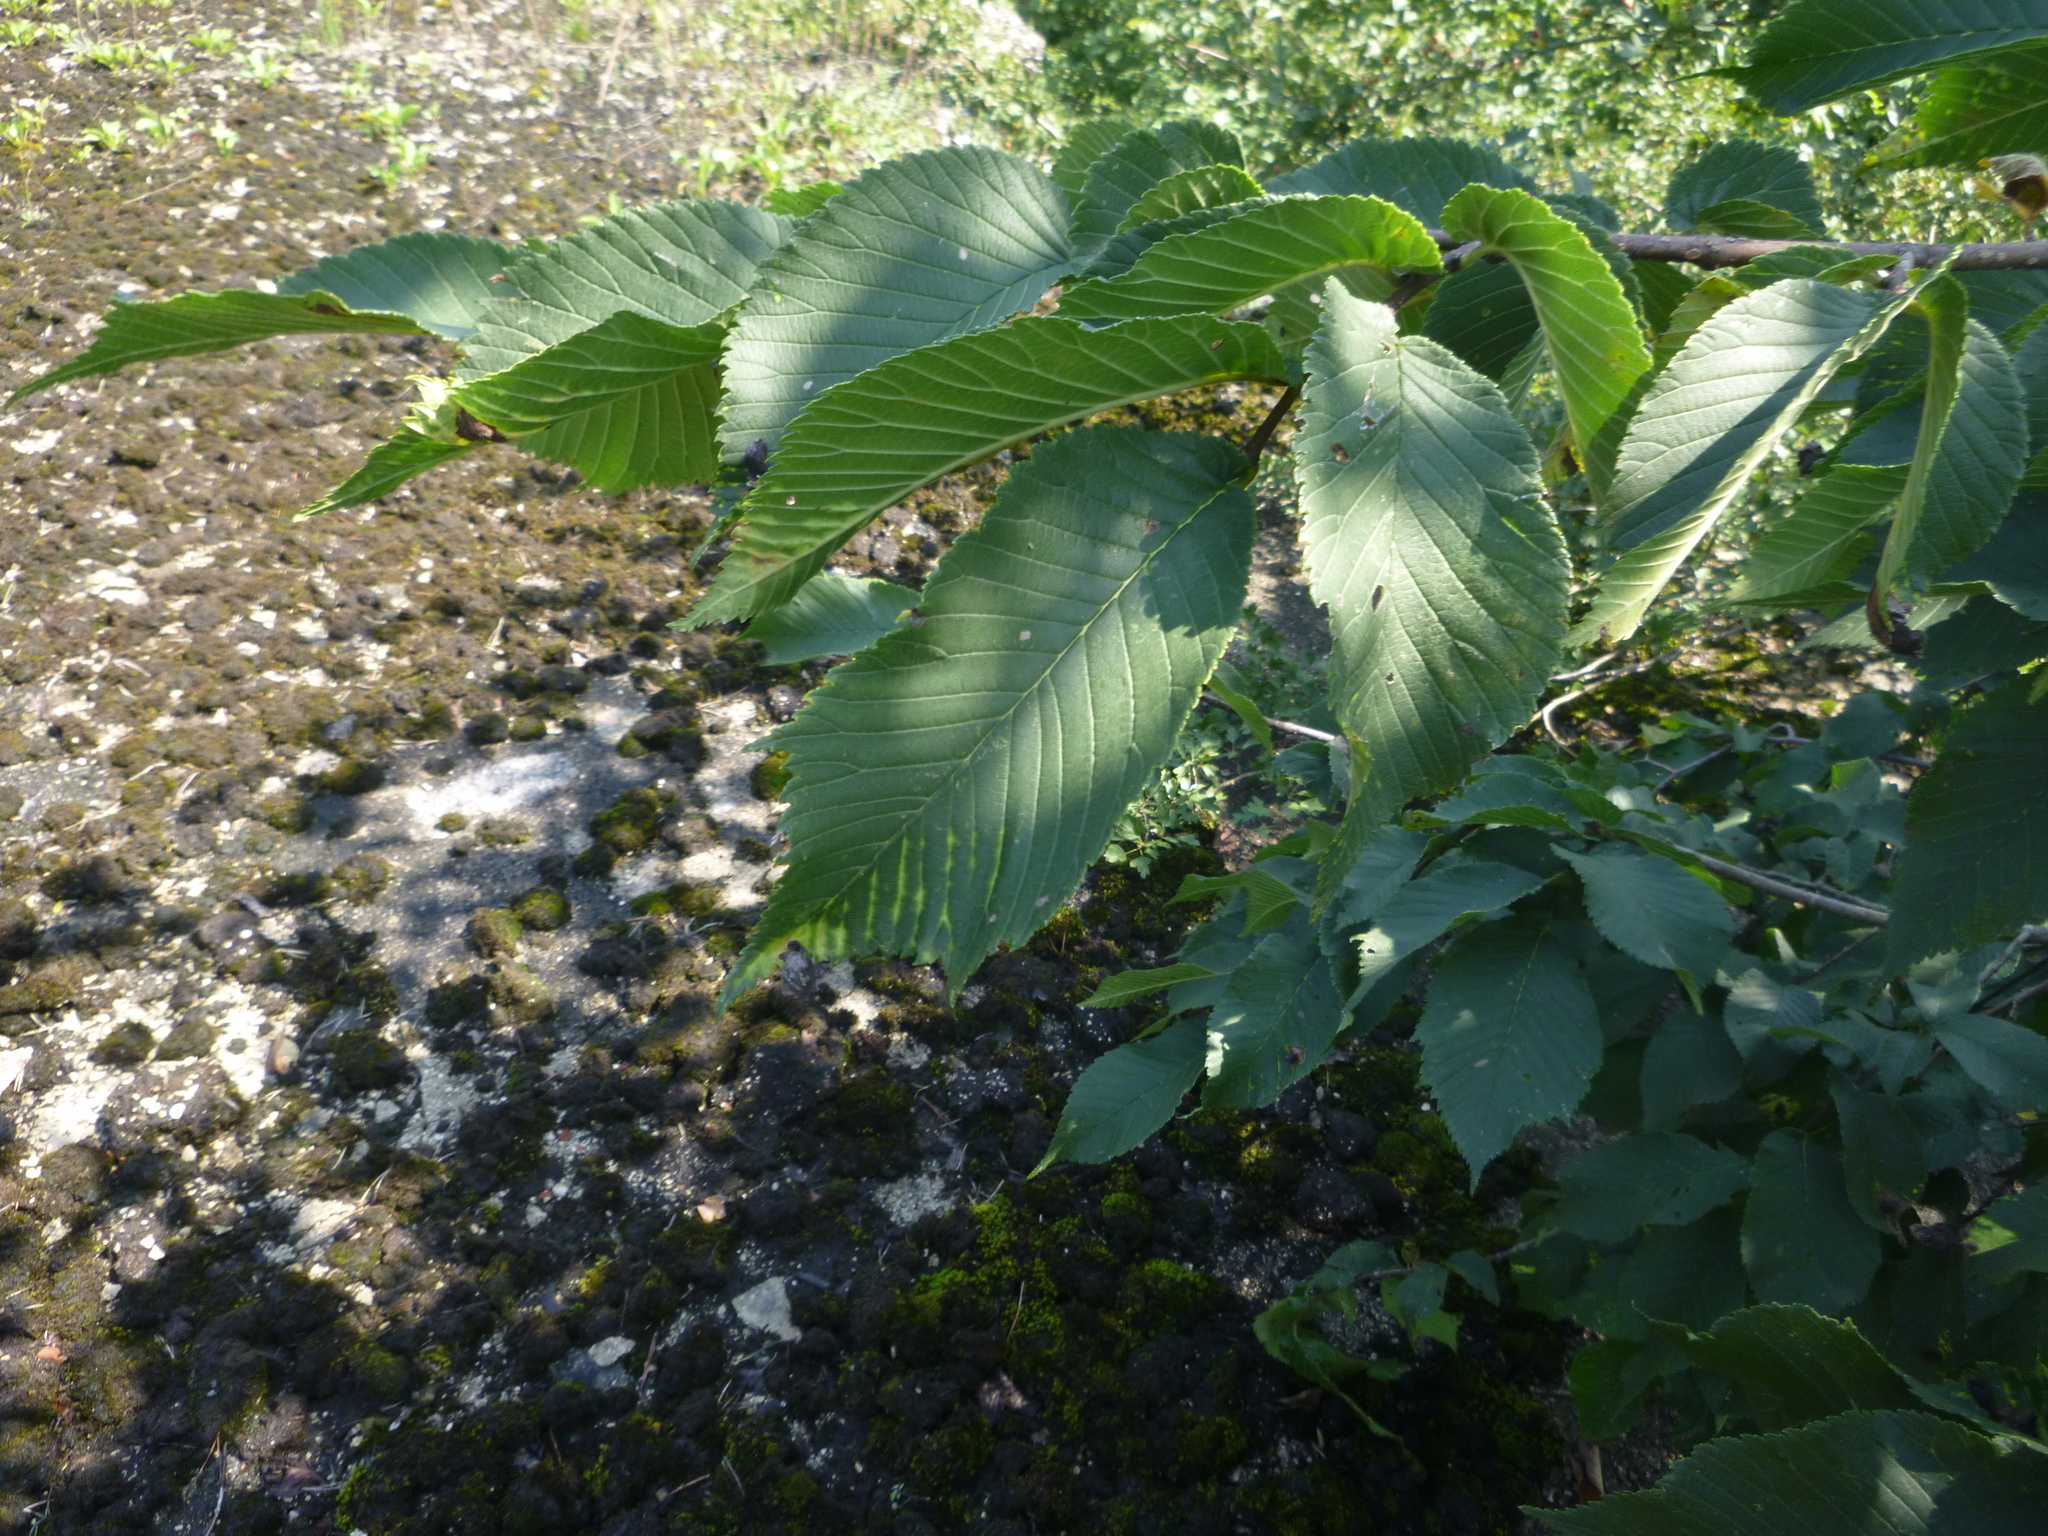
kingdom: Plantae
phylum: Tracheophyta
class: Magnoliopsida
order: Rosales
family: Ulmaceae
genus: Ulmus
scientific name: Ulmus glabra
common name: Wych elm
